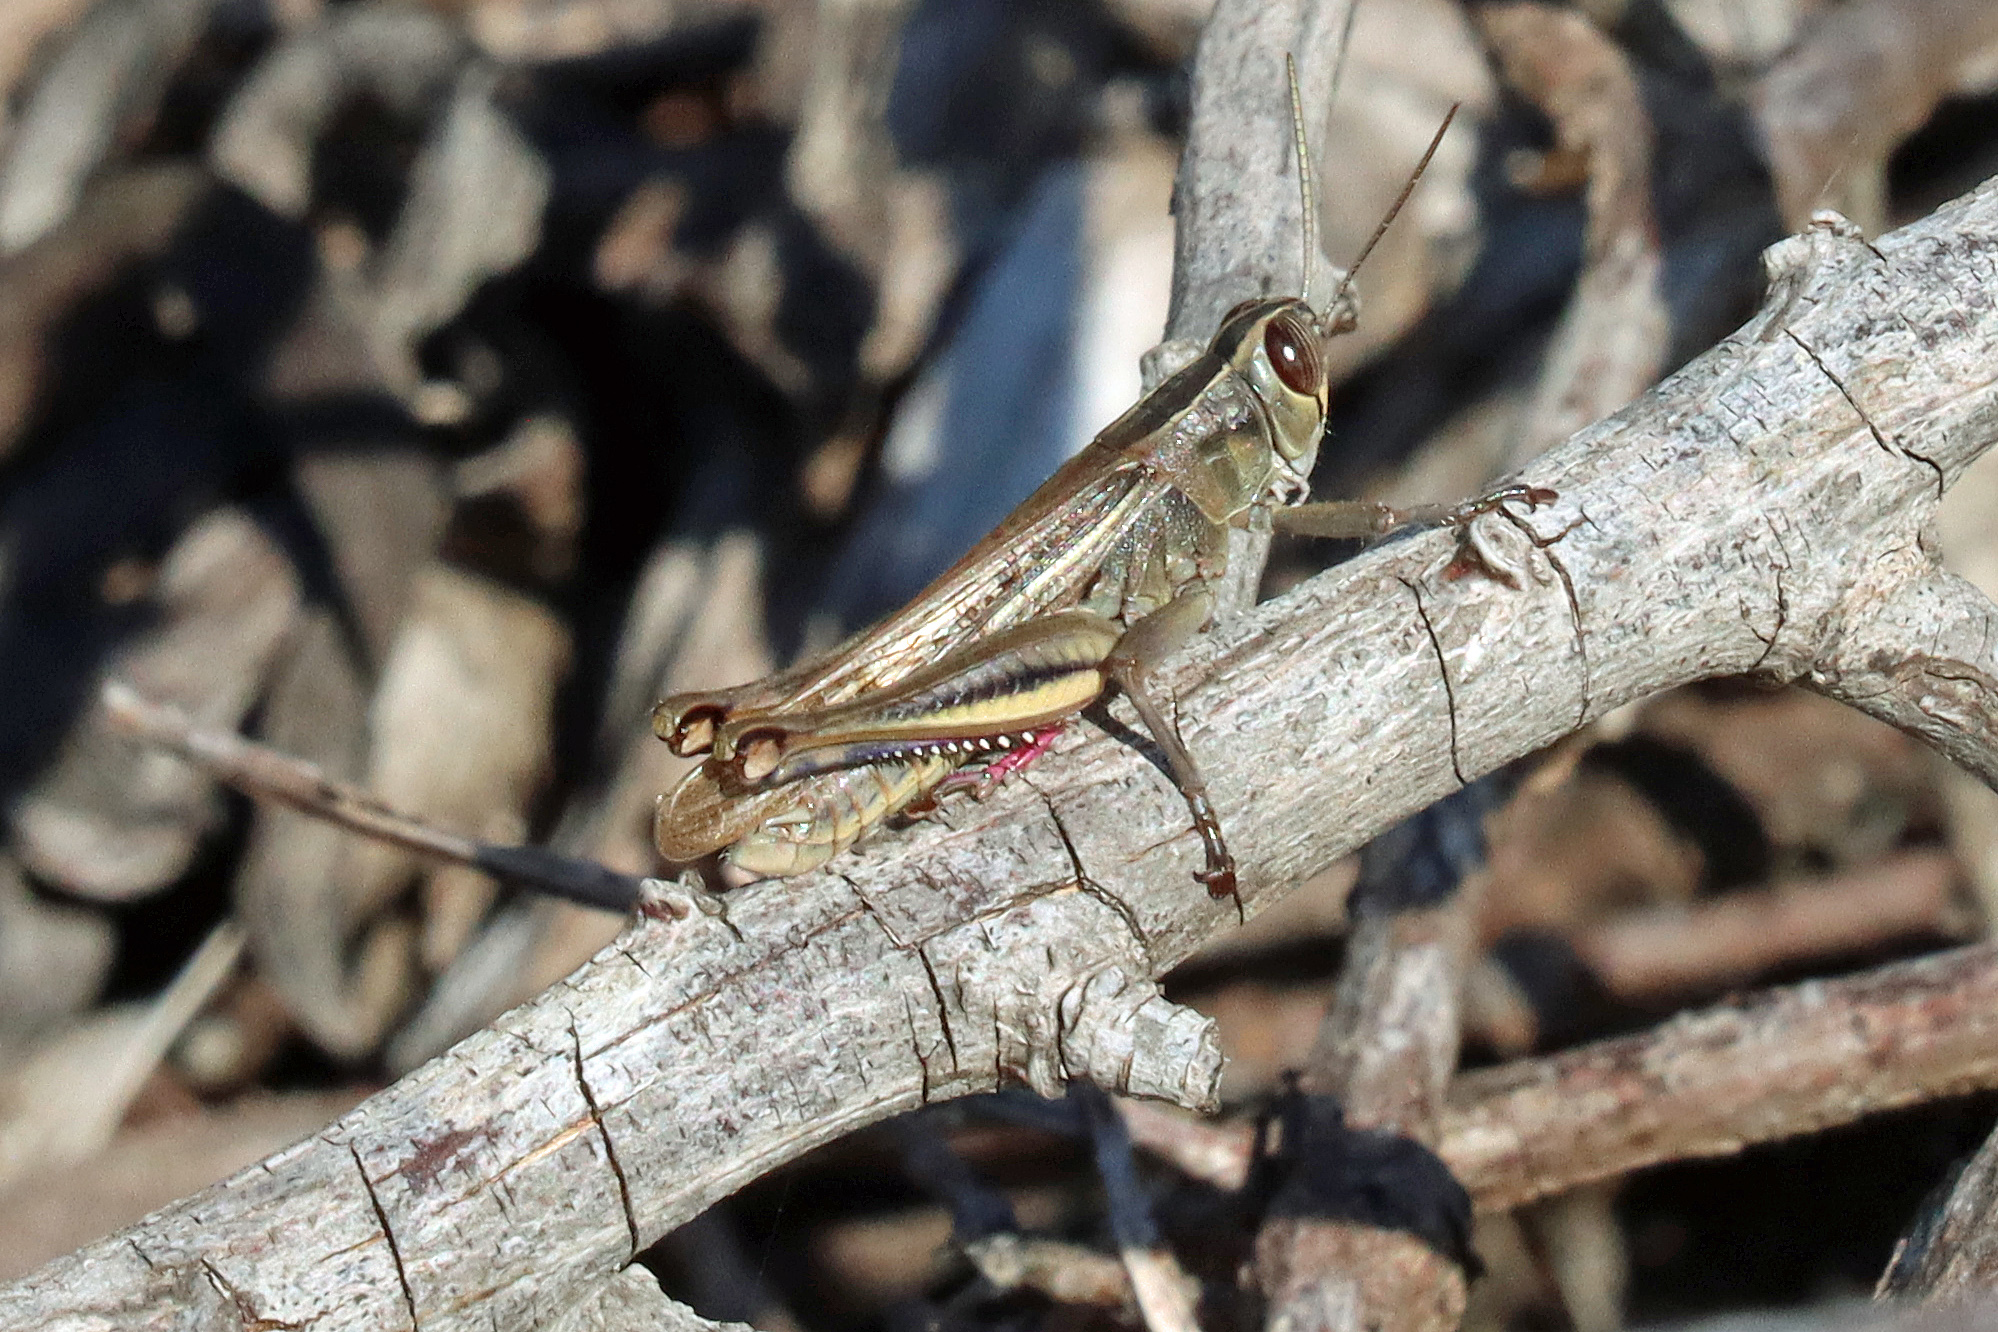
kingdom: Animalia
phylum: Arthropoda
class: Insecta
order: Orthoptera
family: Acrididae
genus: Eyprepocnemis
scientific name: Eyprepocnemis plorans
